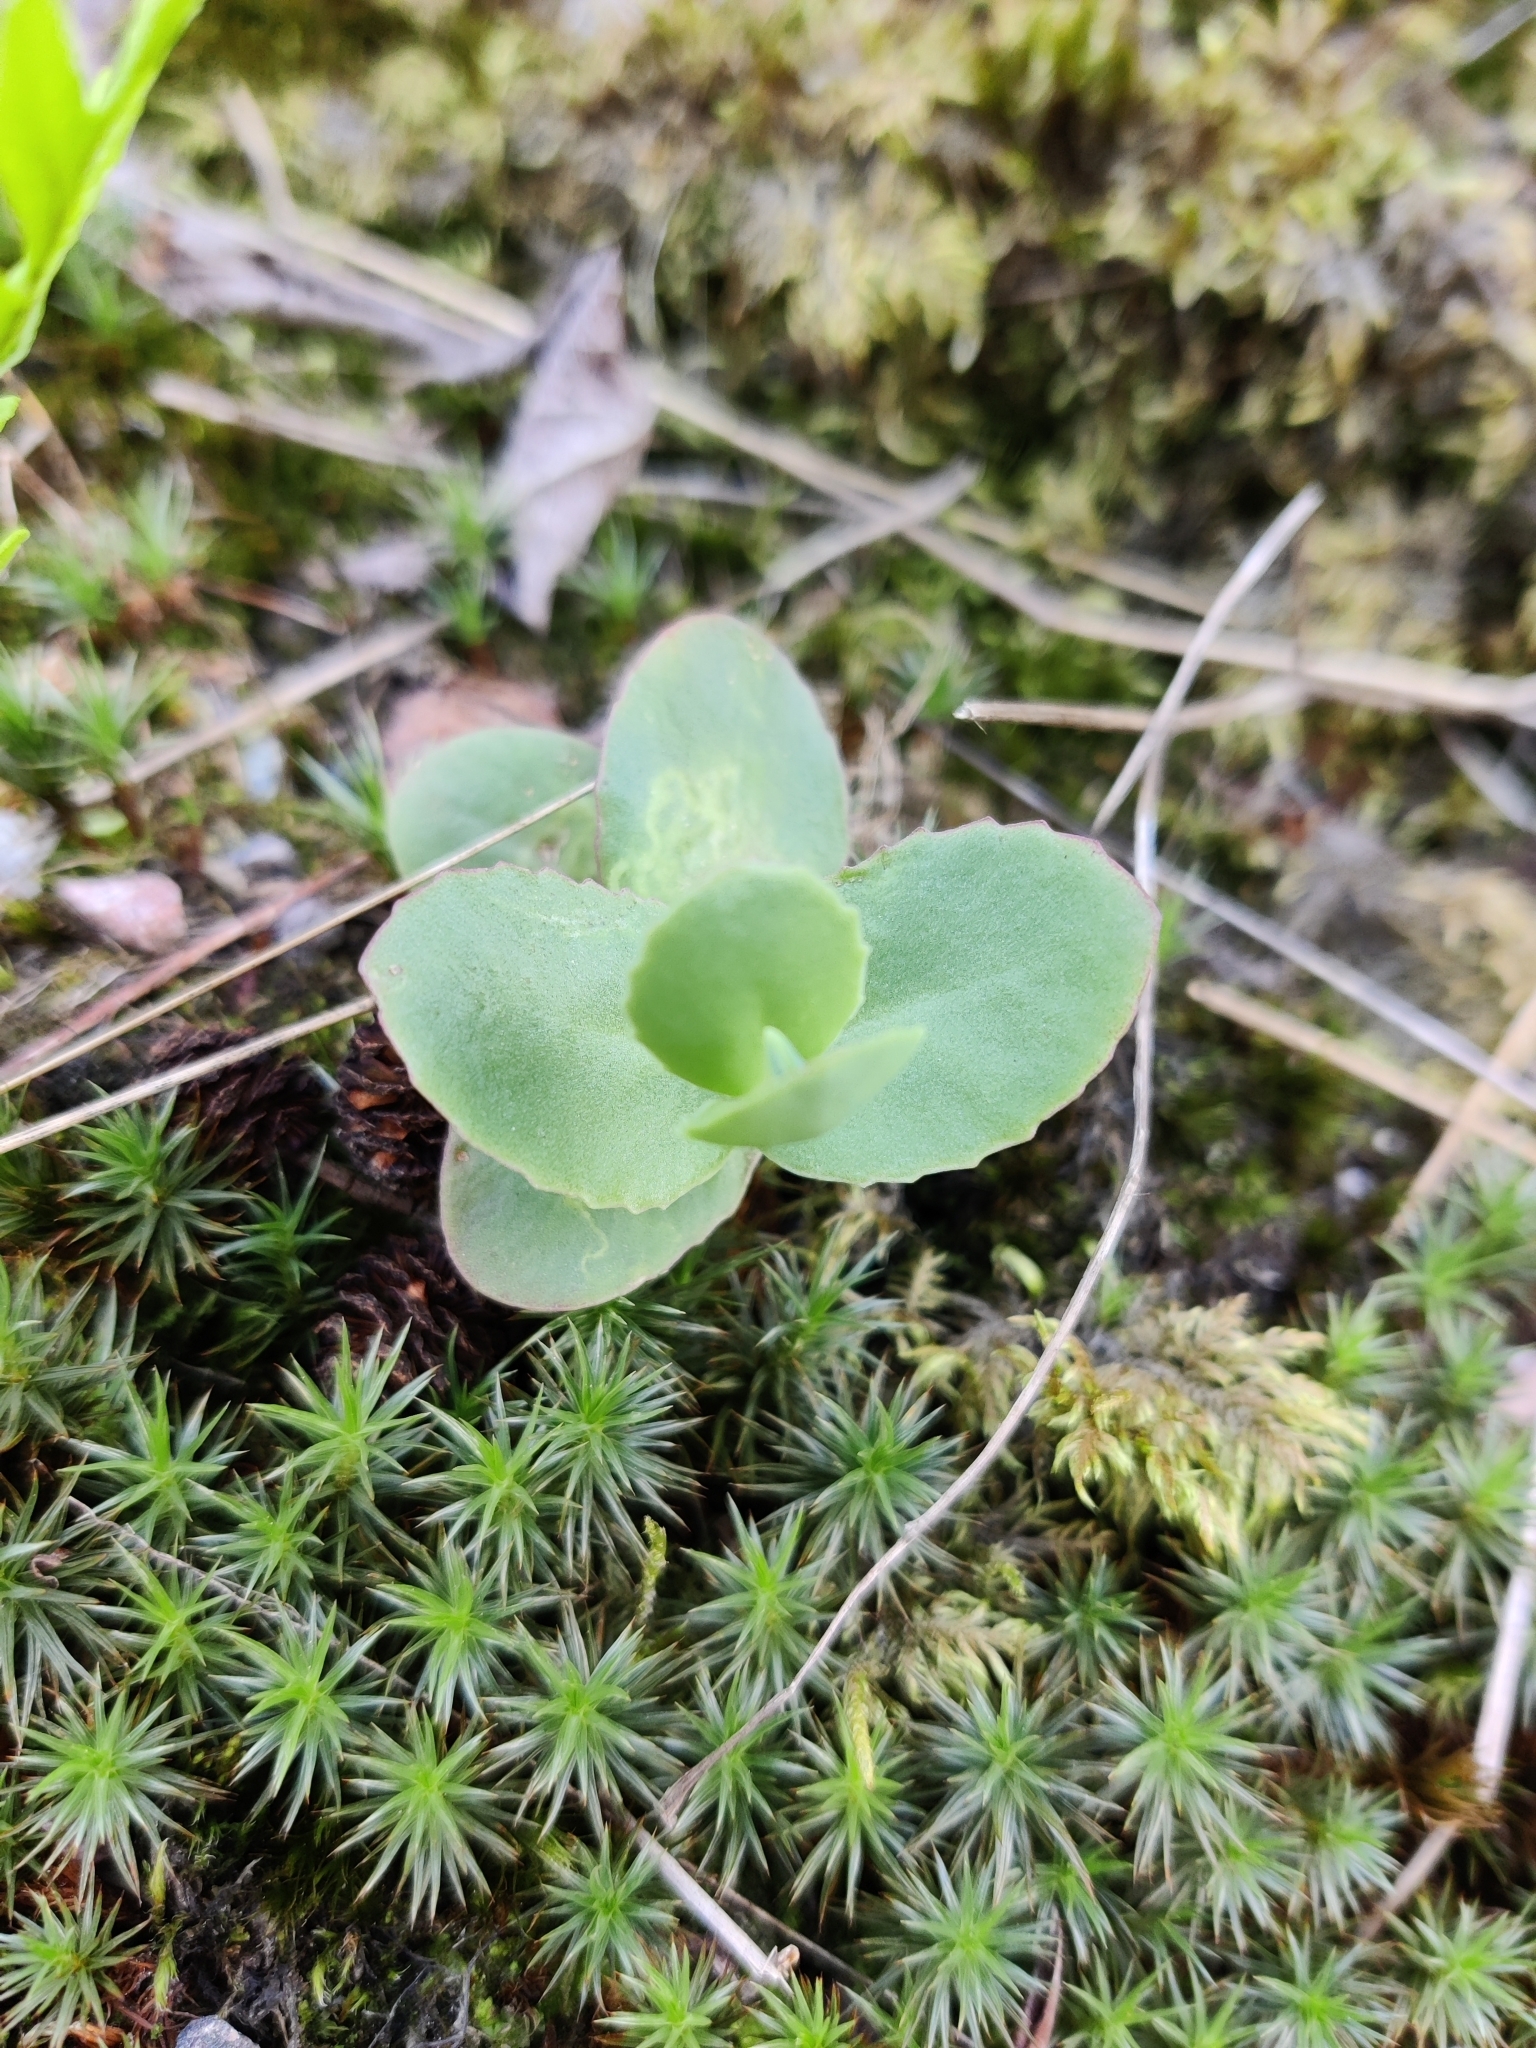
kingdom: Plantae
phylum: Tracheophyta
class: Magnoliopsida
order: Saxifragales
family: Crassulaceae
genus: Hylotelephium
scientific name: Hylotelephium maximum
